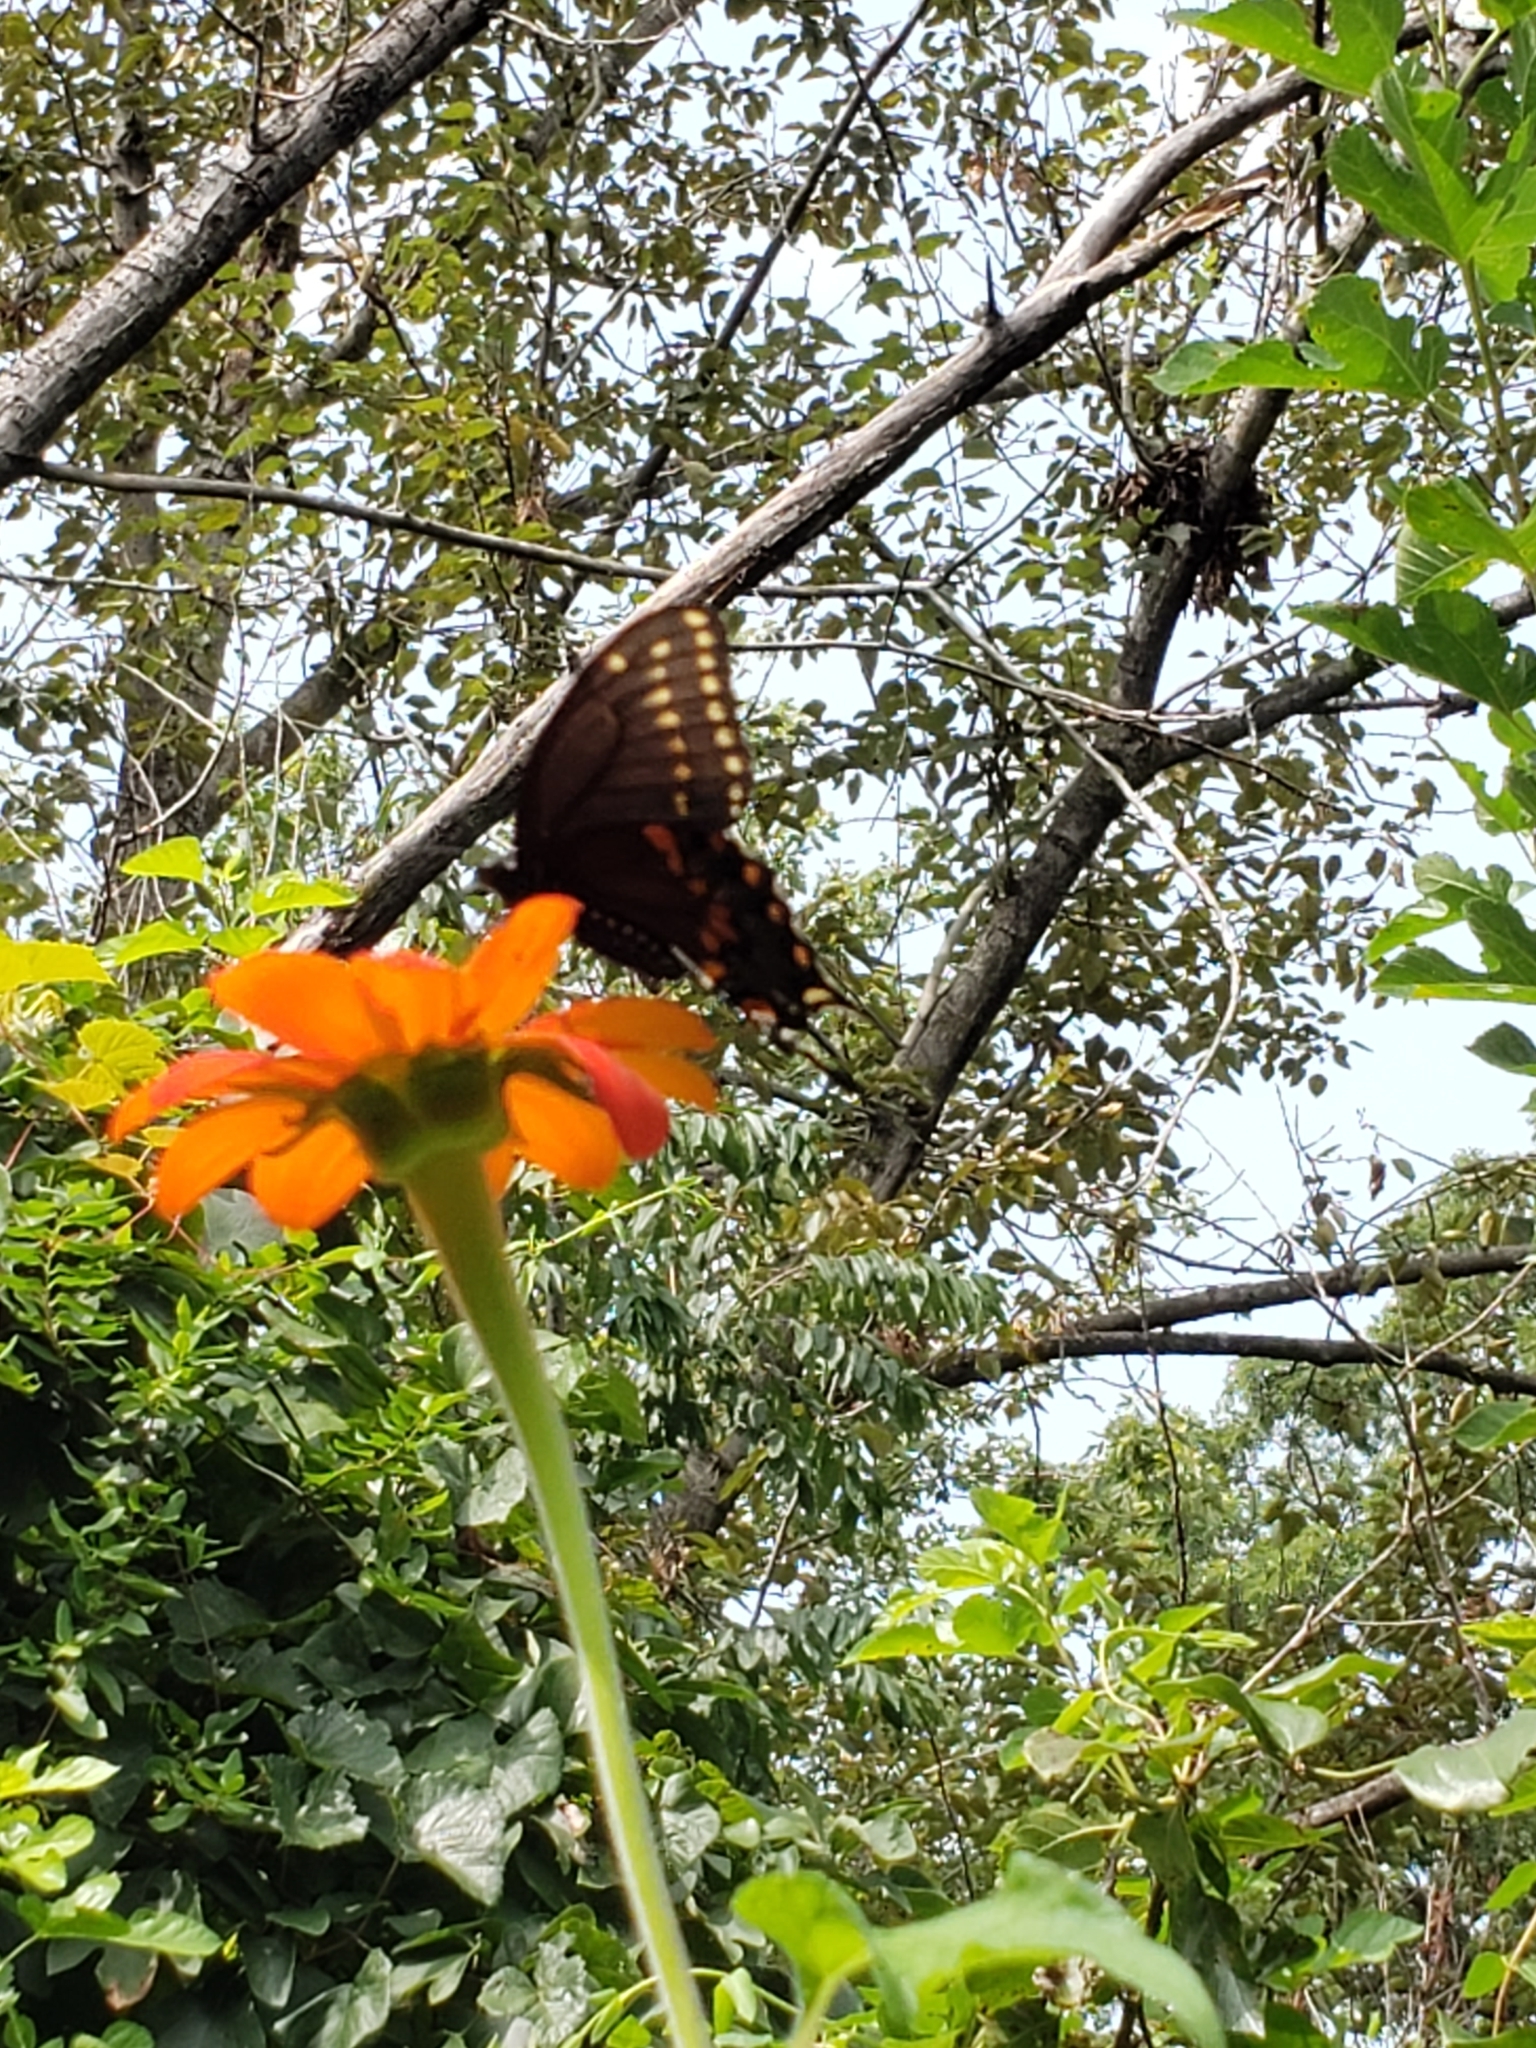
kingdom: Animalia
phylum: Arthropoda
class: Insecta
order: Lepidoptera
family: Papilionidae
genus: Papilio
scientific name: Papilio polyxenes
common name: Black swallowtail
